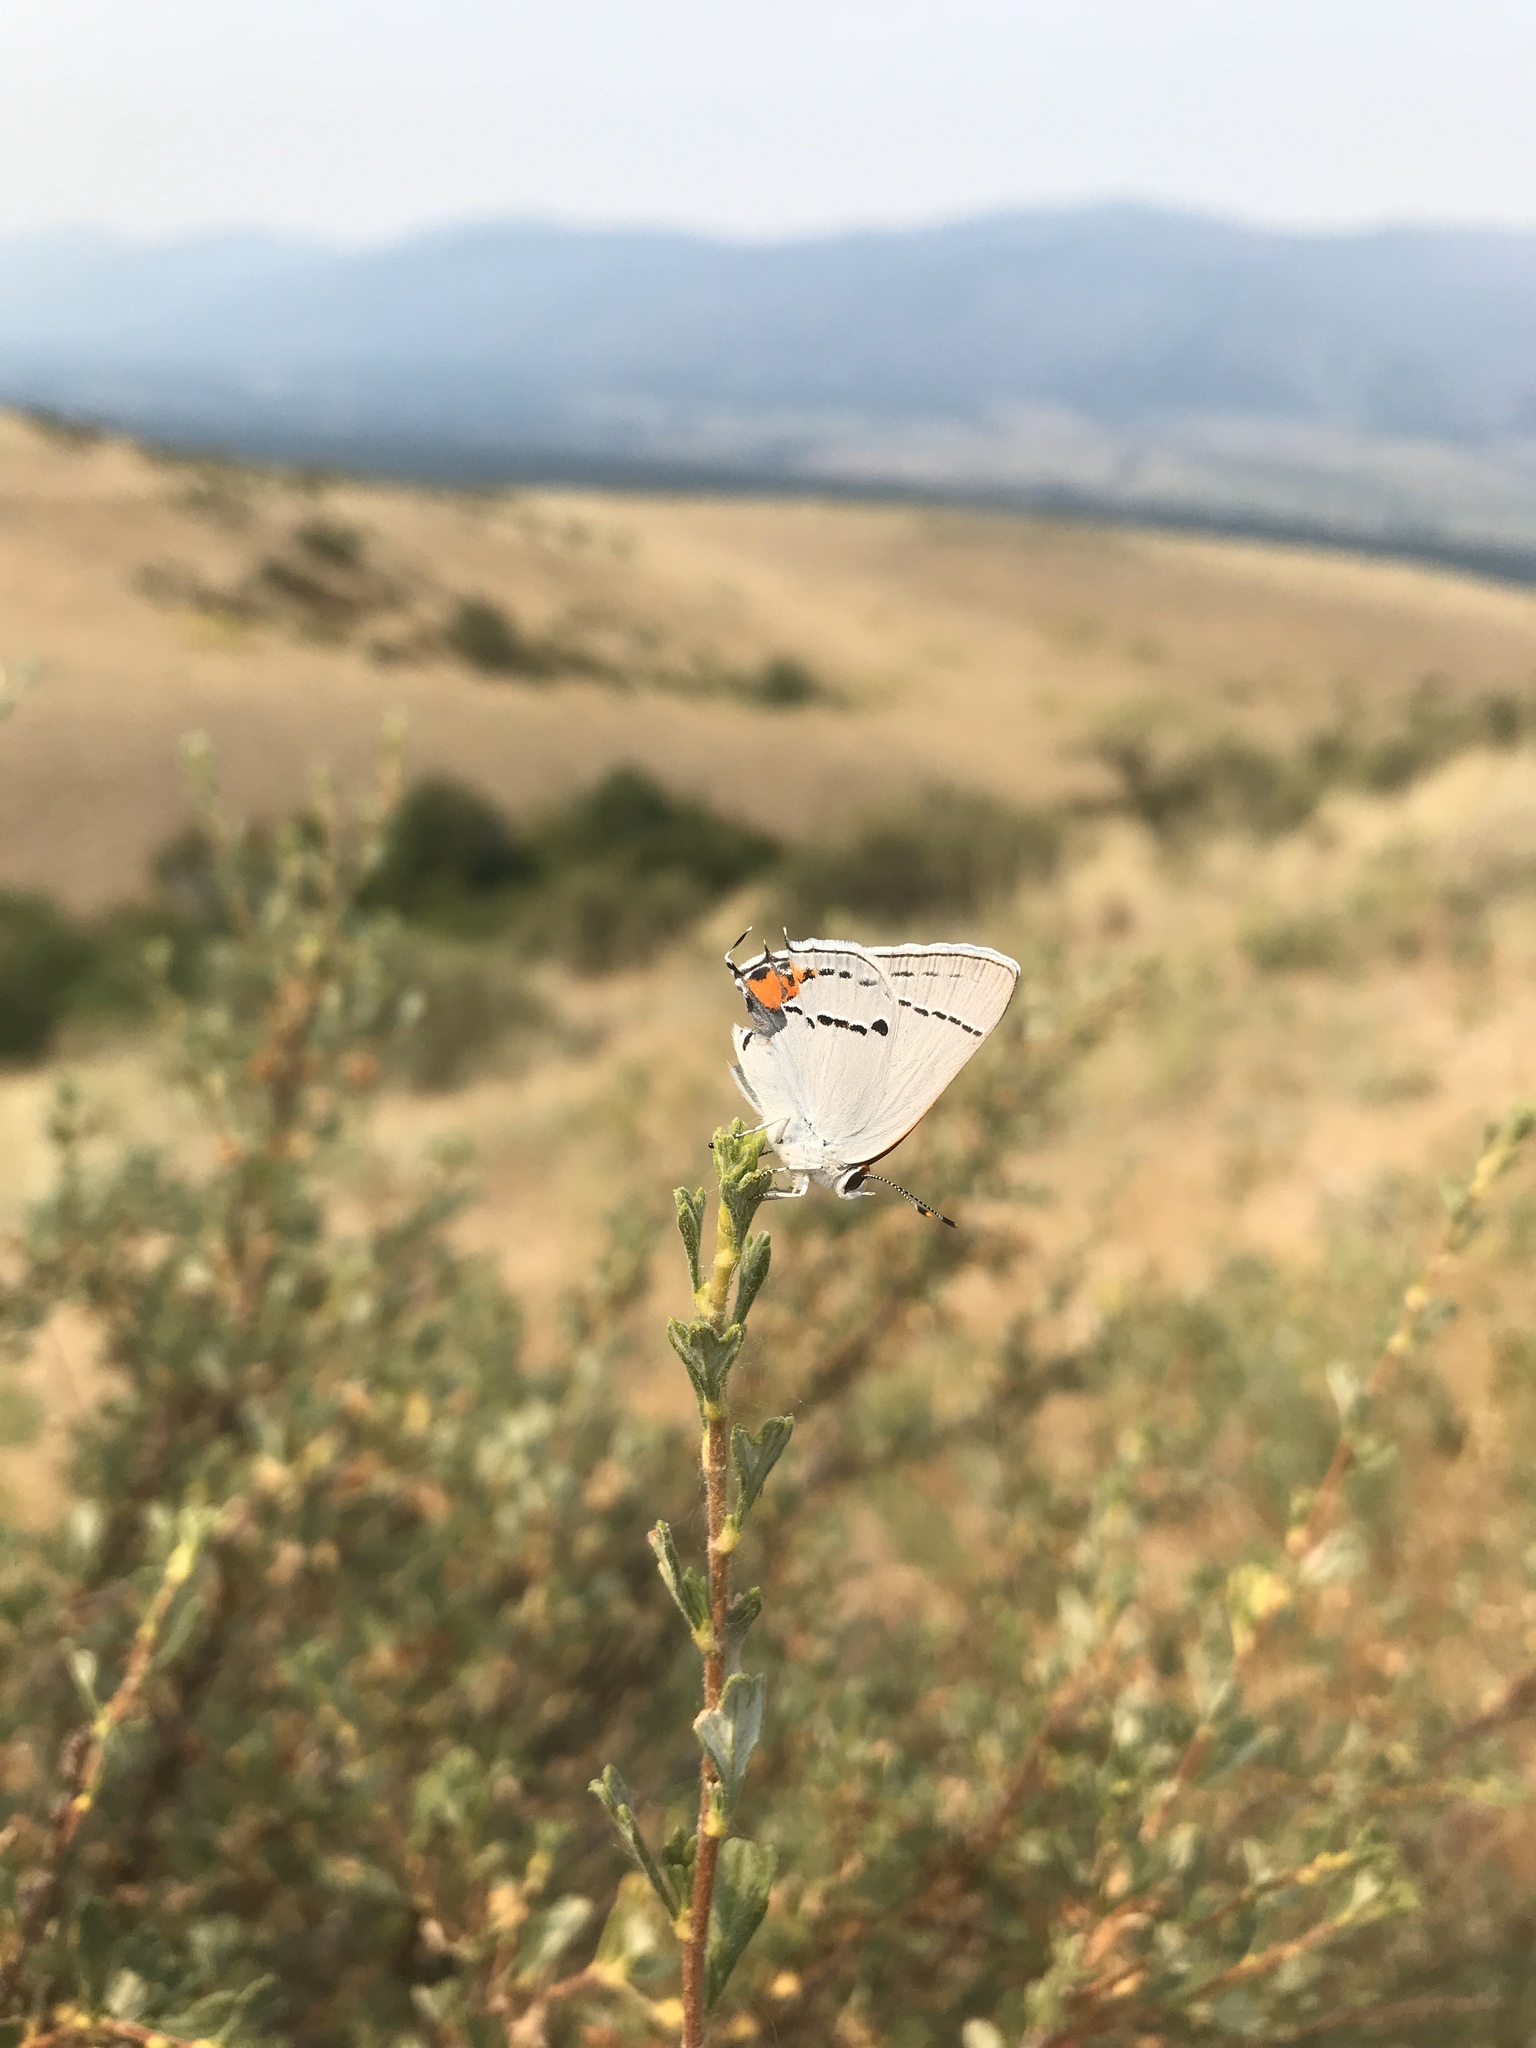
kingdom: Animalia
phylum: Arthropoda
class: Insecta
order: Lepidoptera
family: Lycaenidae
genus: Strymon
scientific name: Strymon melinus
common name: Gray hairstreak
